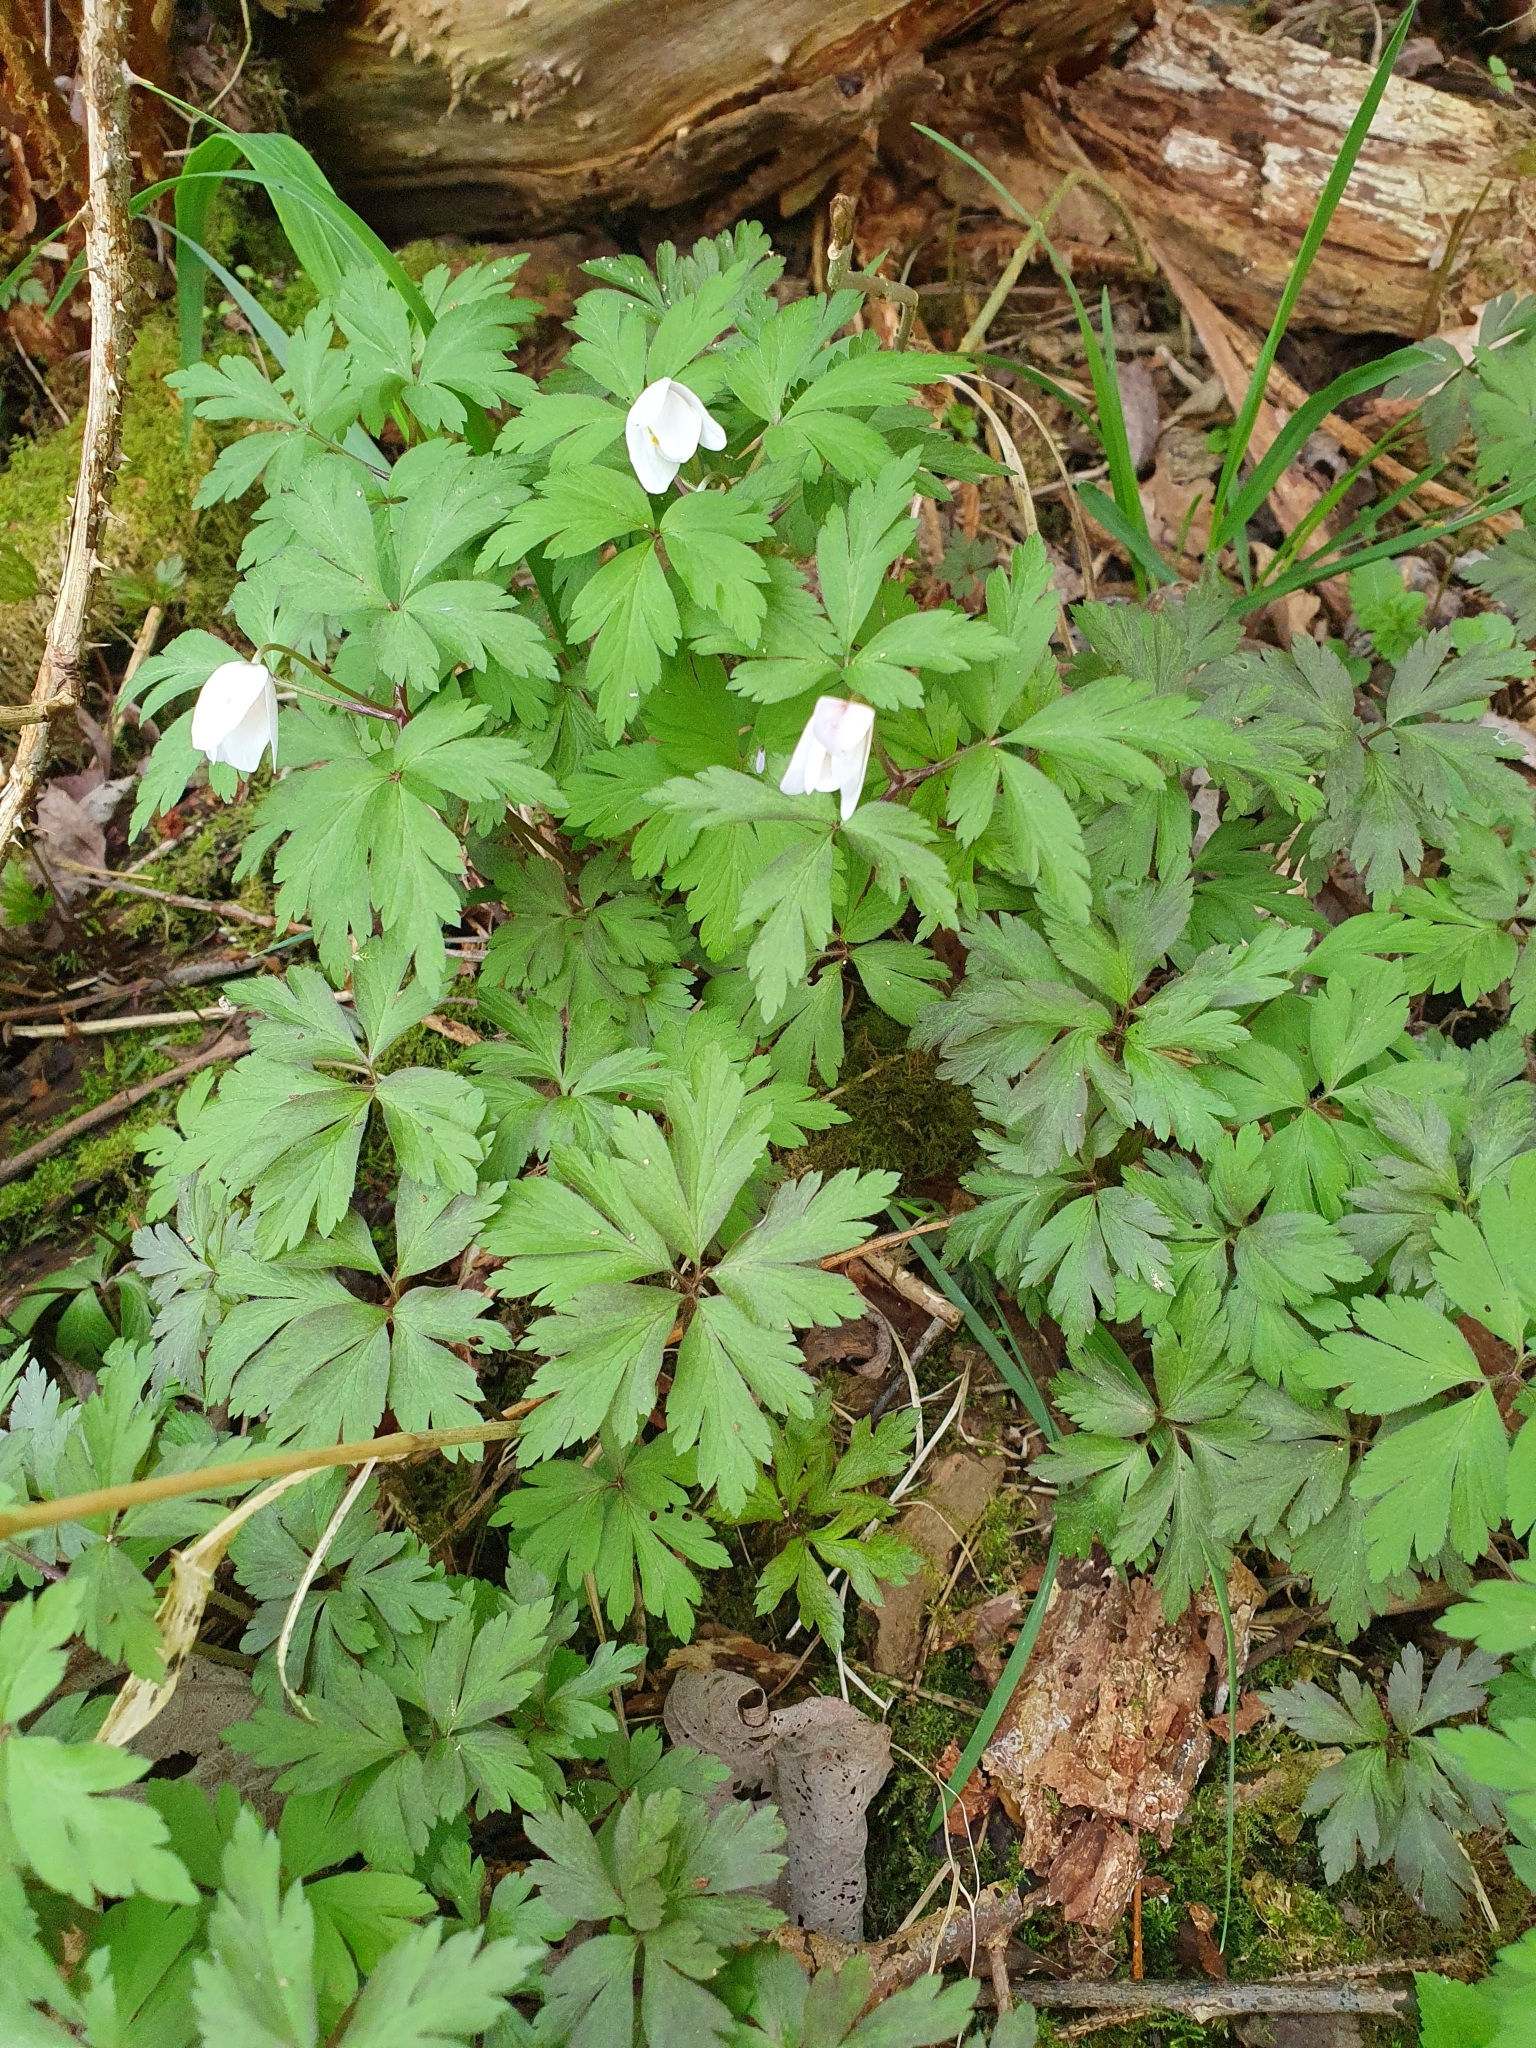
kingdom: Plantae
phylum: Tracheophyta
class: Magnoliopsida
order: Ranunculales
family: Ranunculaceae
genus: Anemone
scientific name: Anemone nemorosa
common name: Wood anemone
